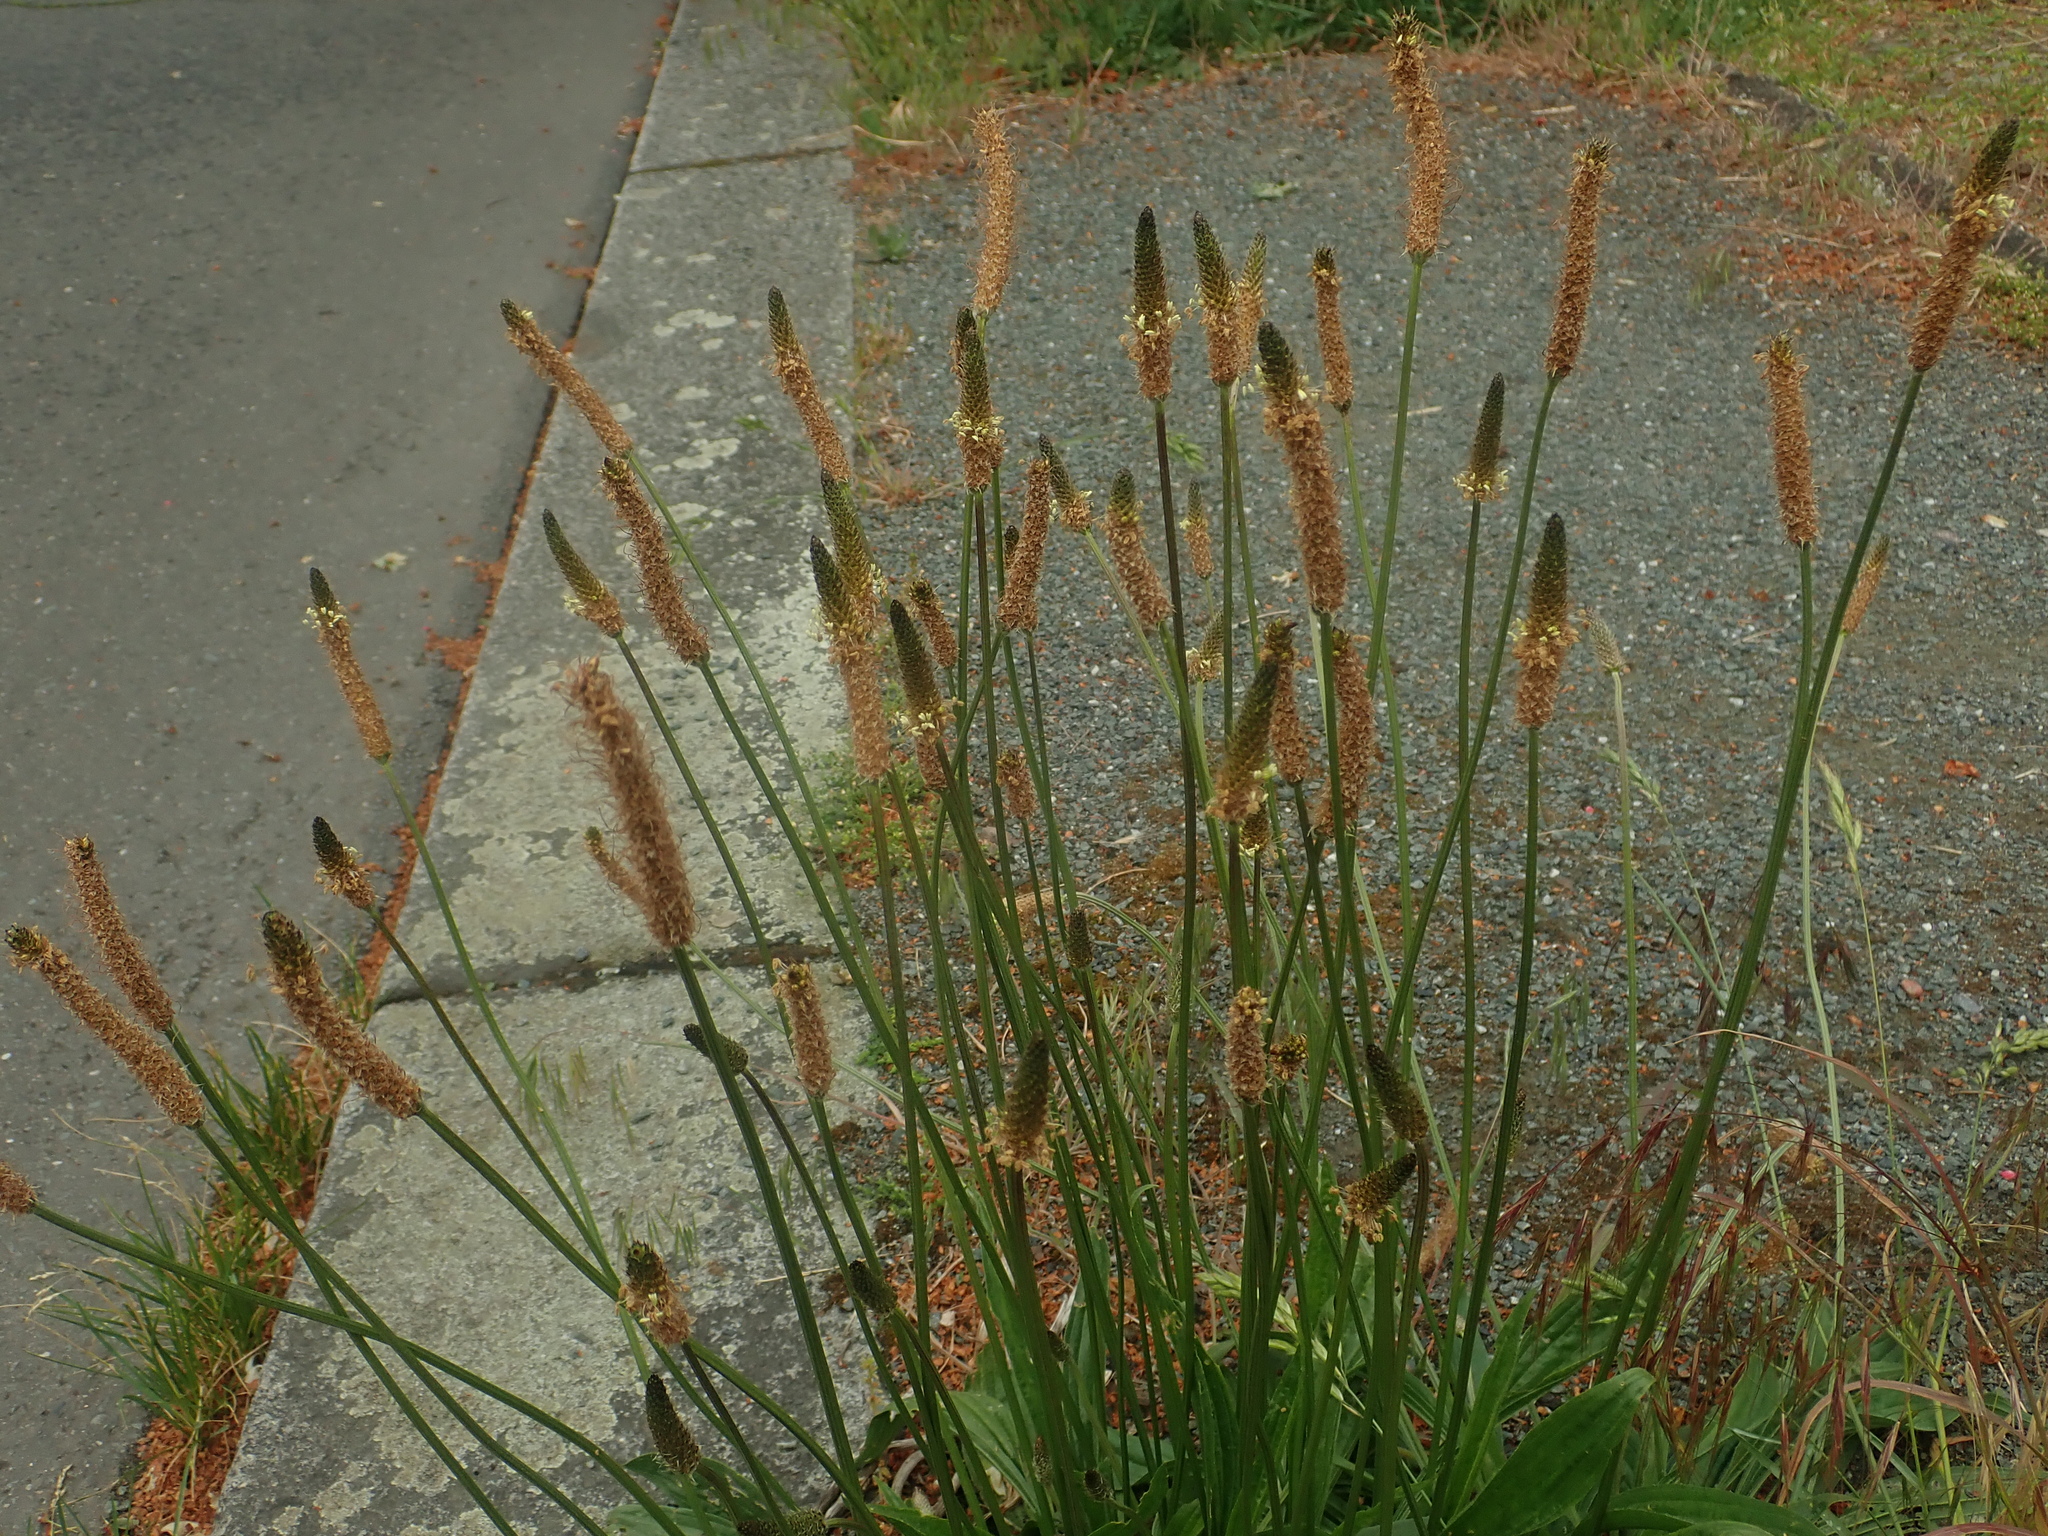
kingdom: Plantae
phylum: Tracheophyta
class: Magnoliopsida
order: Lamiales
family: Plantaginaceae
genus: Plantago
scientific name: Plantago lanceolata
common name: Ribwort plantain
